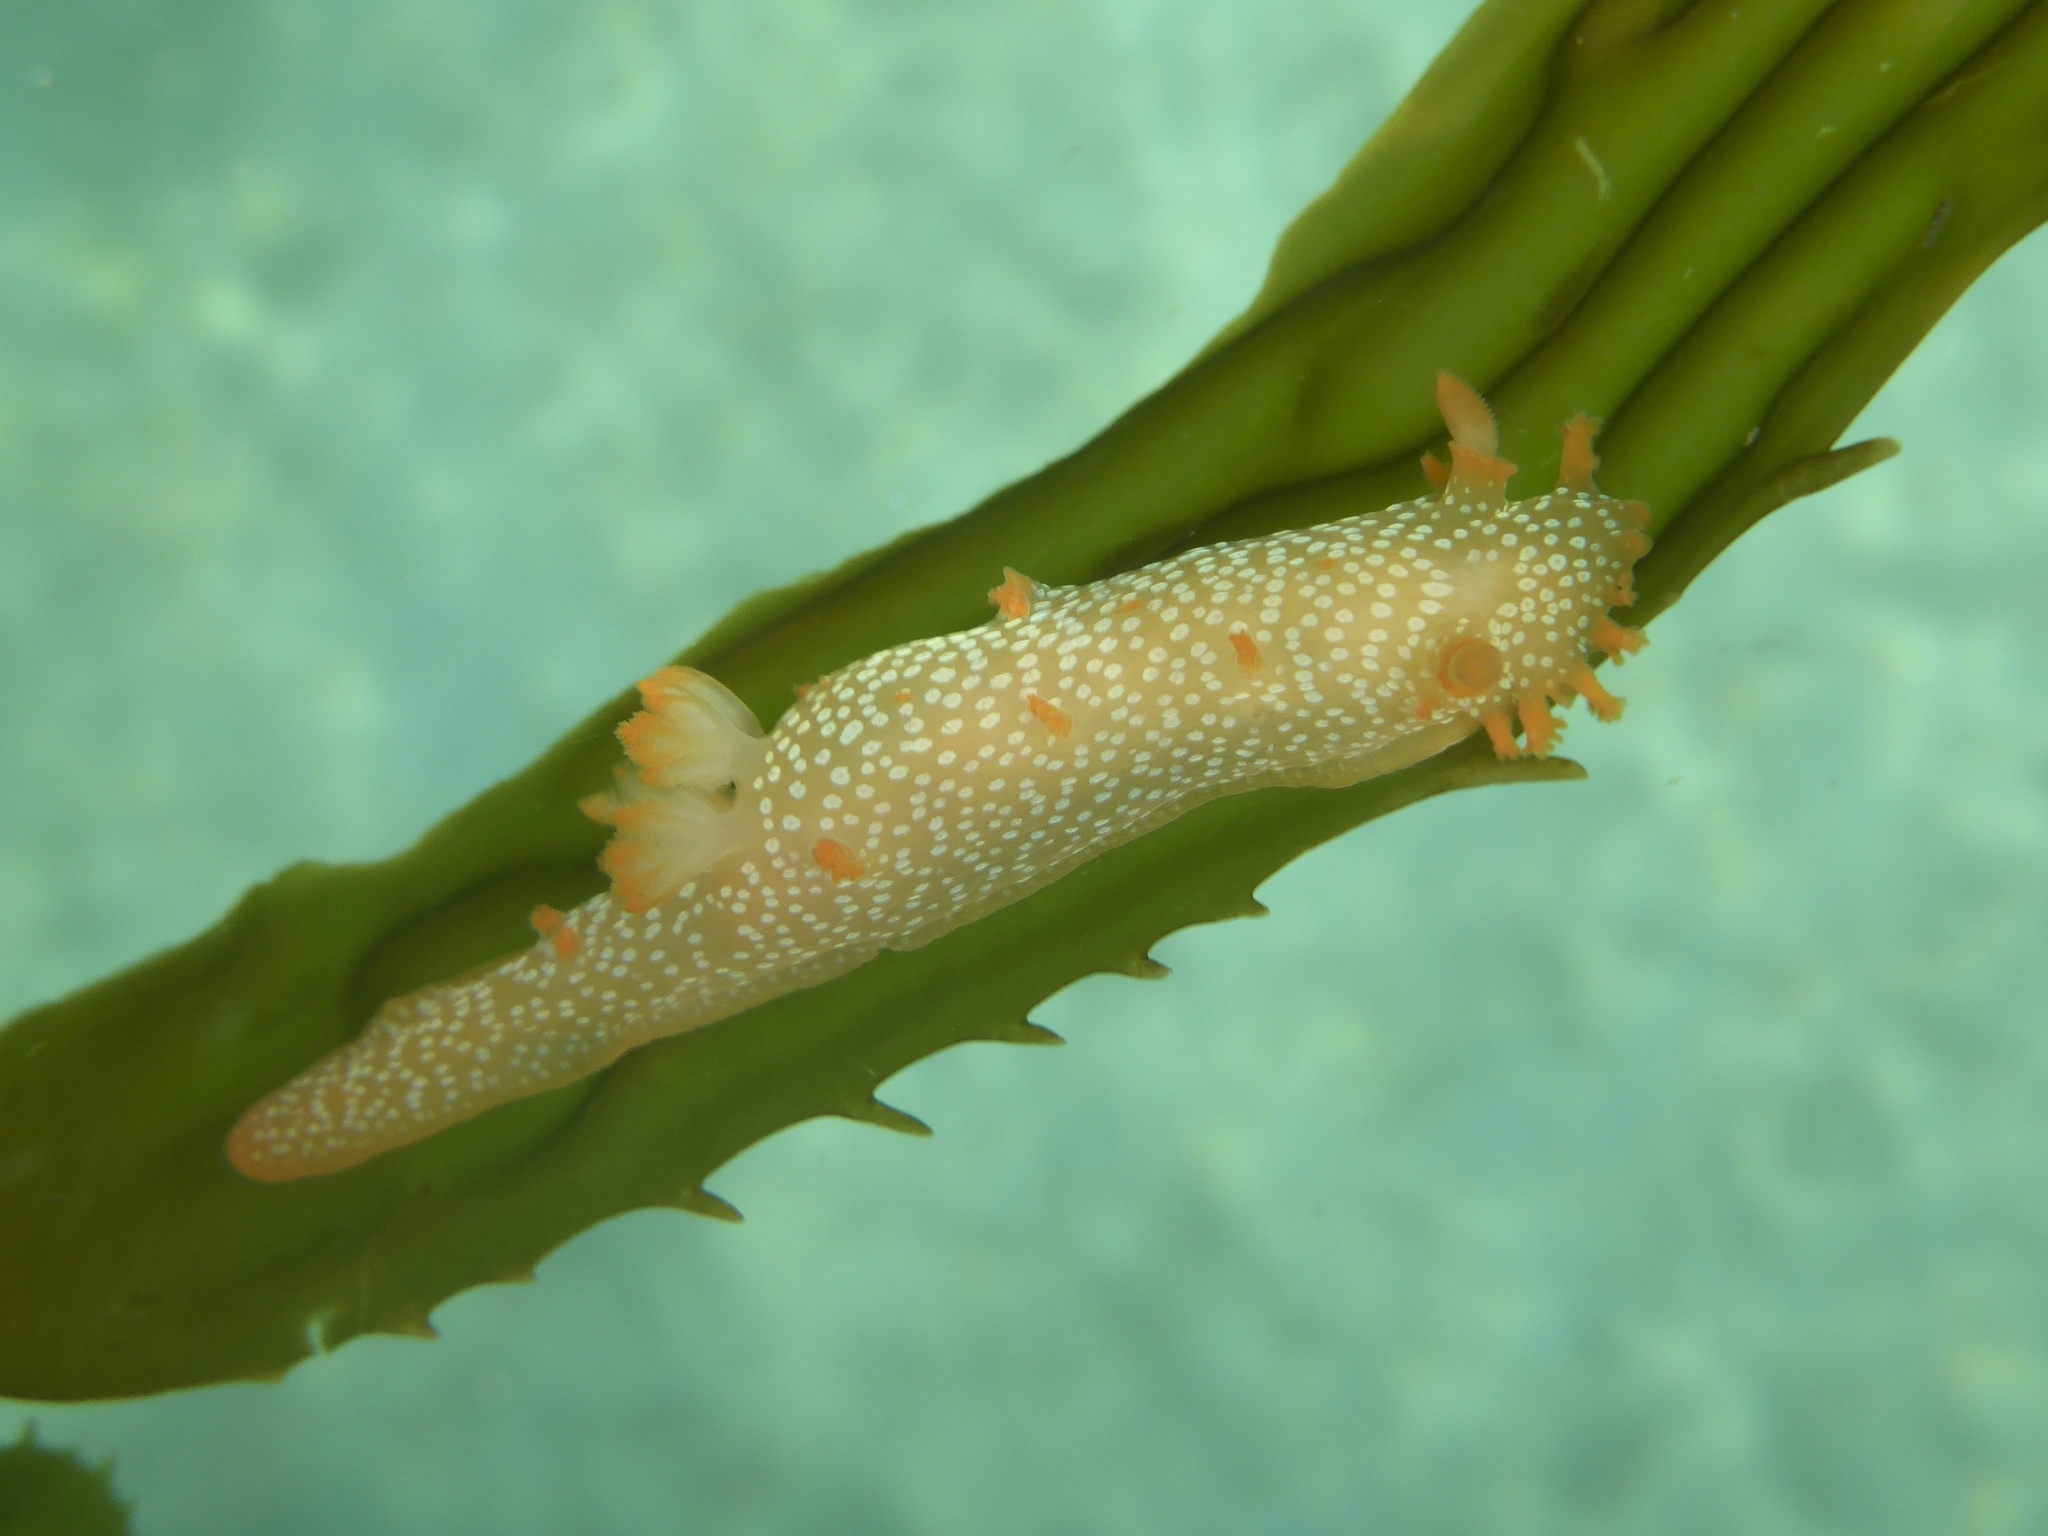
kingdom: Animalia
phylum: Mollusca
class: Gastropoda
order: Nudibranchia
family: Polyceridae
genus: Triopha
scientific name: Triopha maculata
